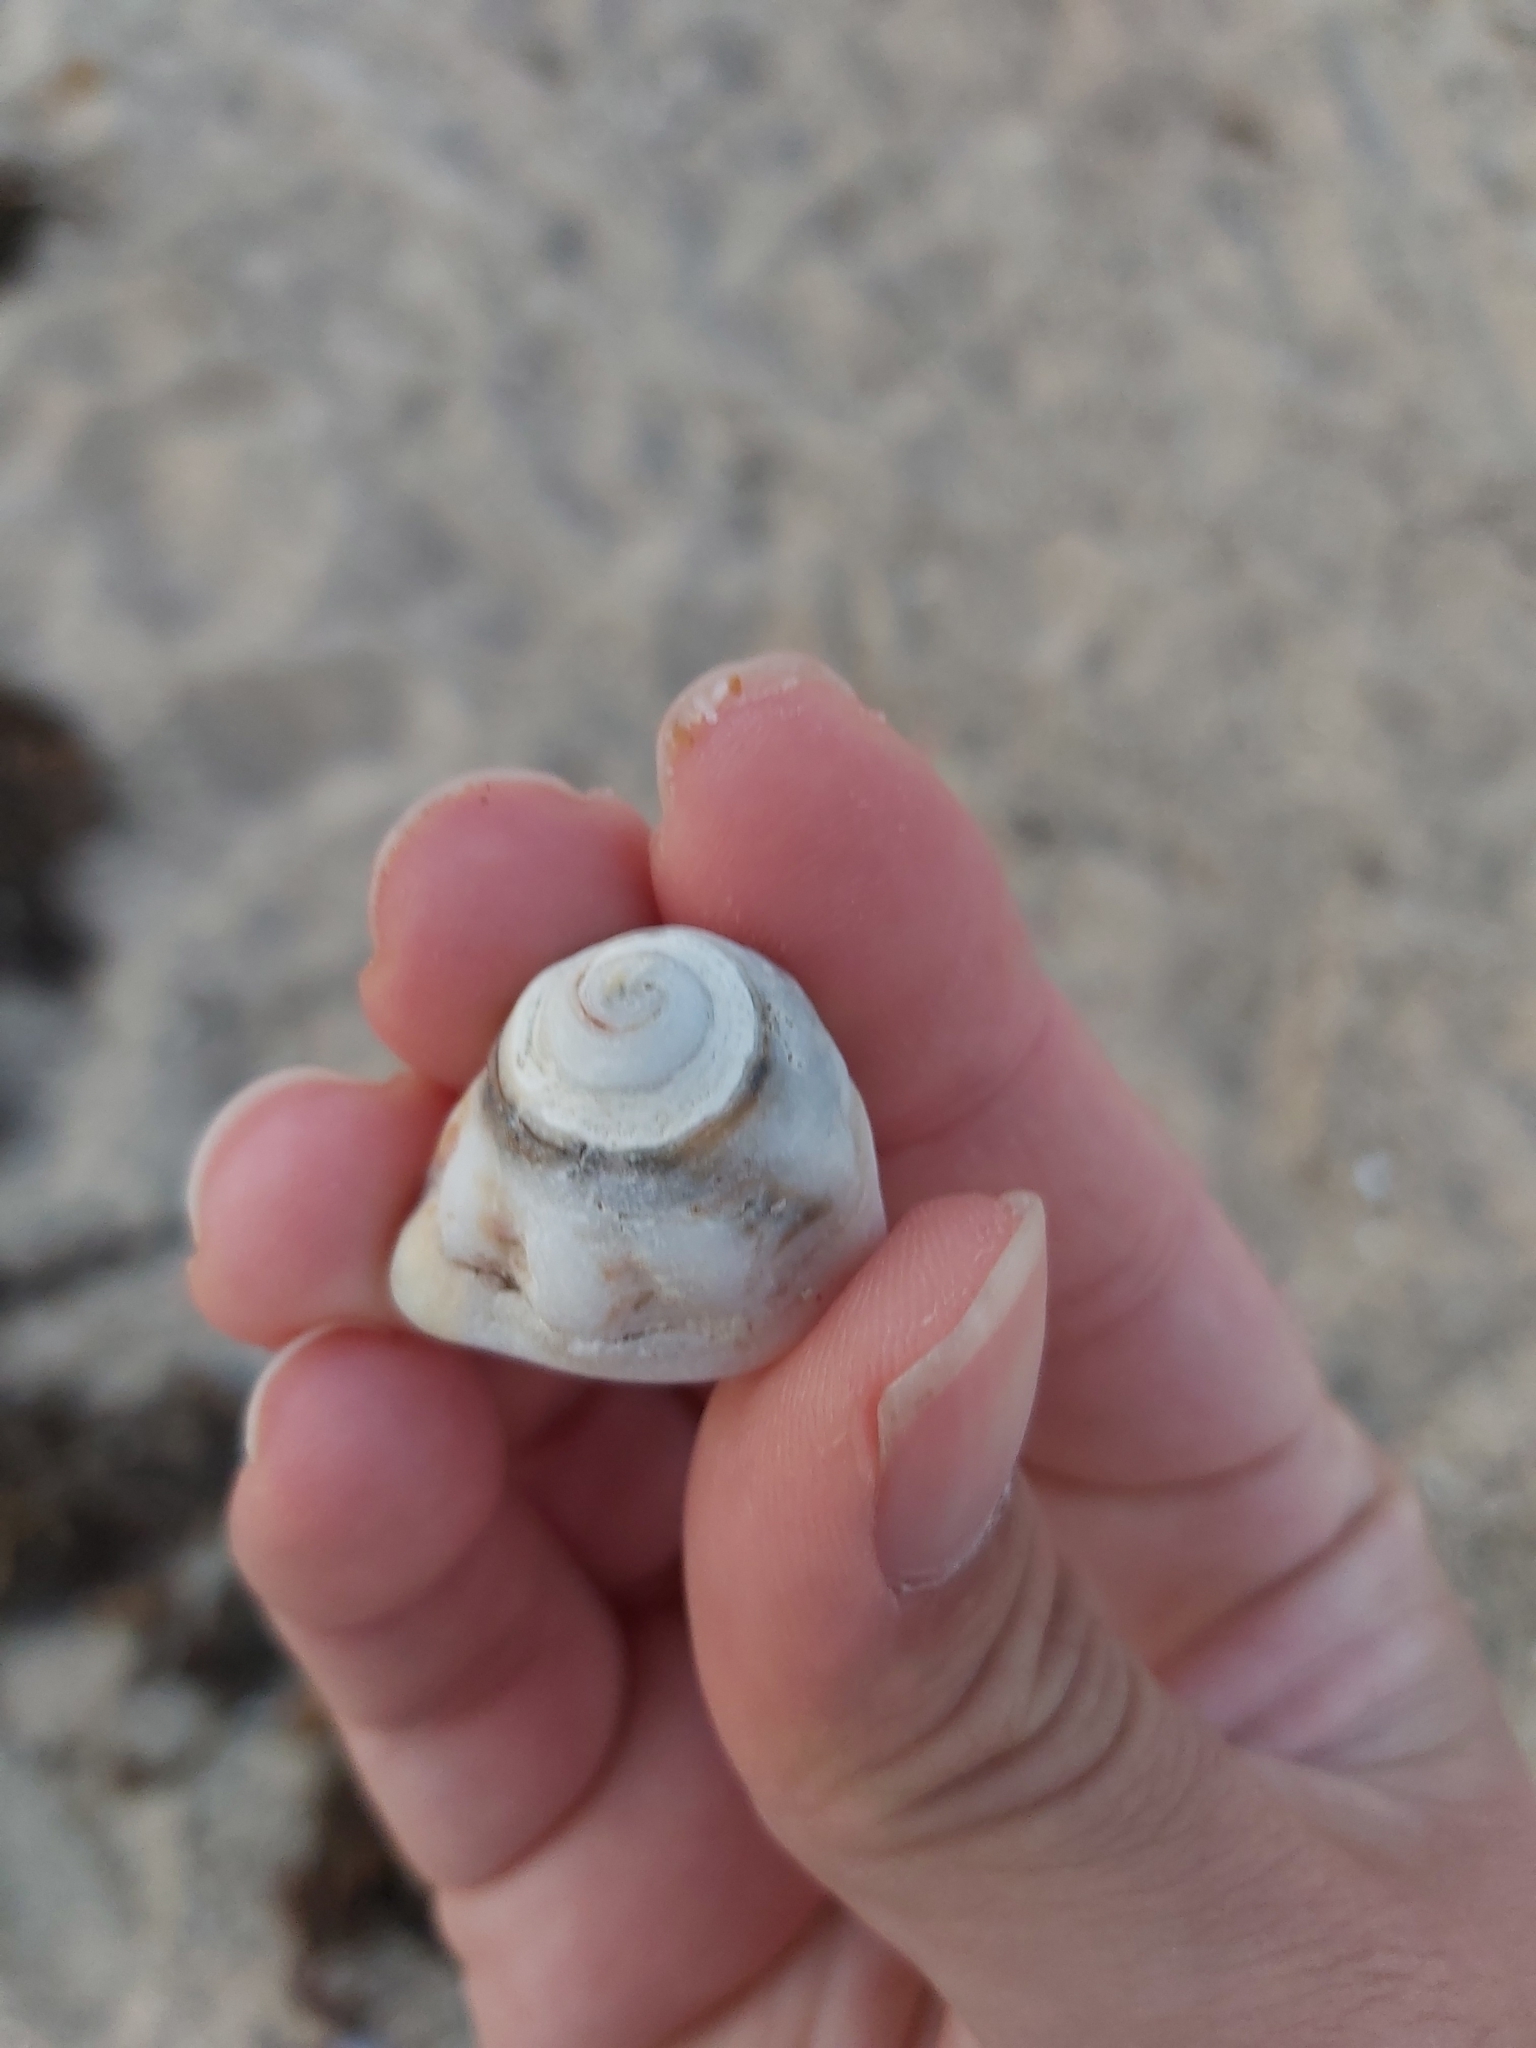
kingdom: Animalia
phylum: Mollusca
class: Gastropoda
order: Littorinimorpha
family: Cymatiidae
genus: Cabestana
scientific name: Cabestana spengleri
